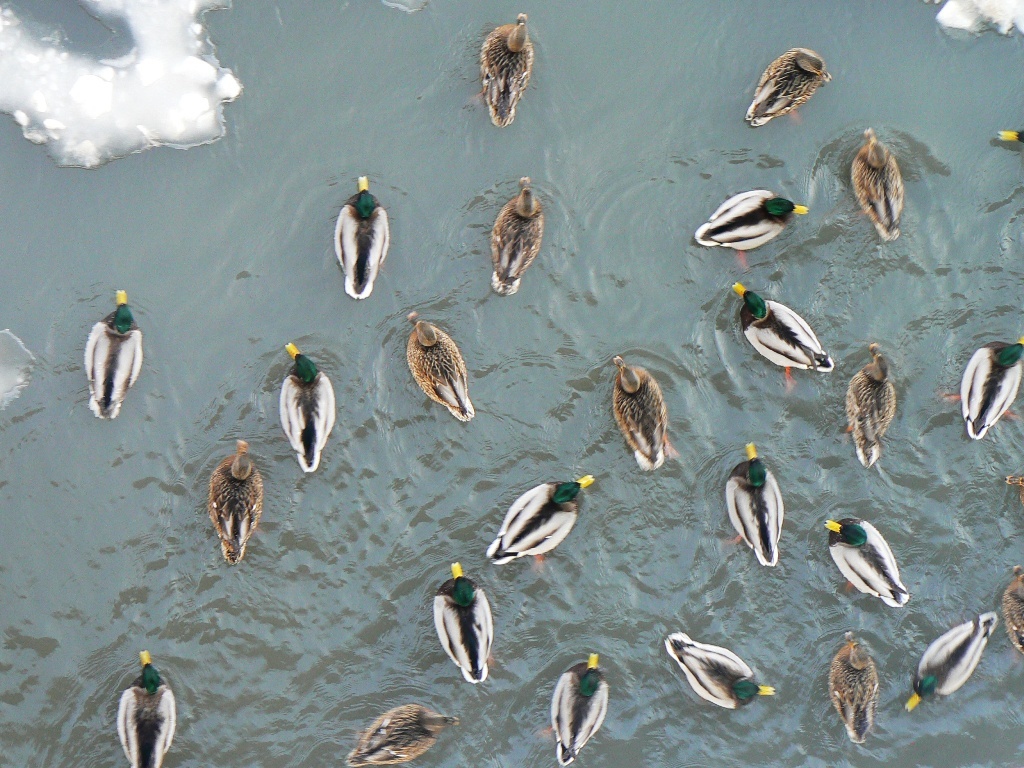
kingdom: Animalia
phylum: Chordata
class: Aves
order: Anseriformes
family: Anatidae
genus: Anas
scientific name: Anas platyrhynchos
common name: Mallard
